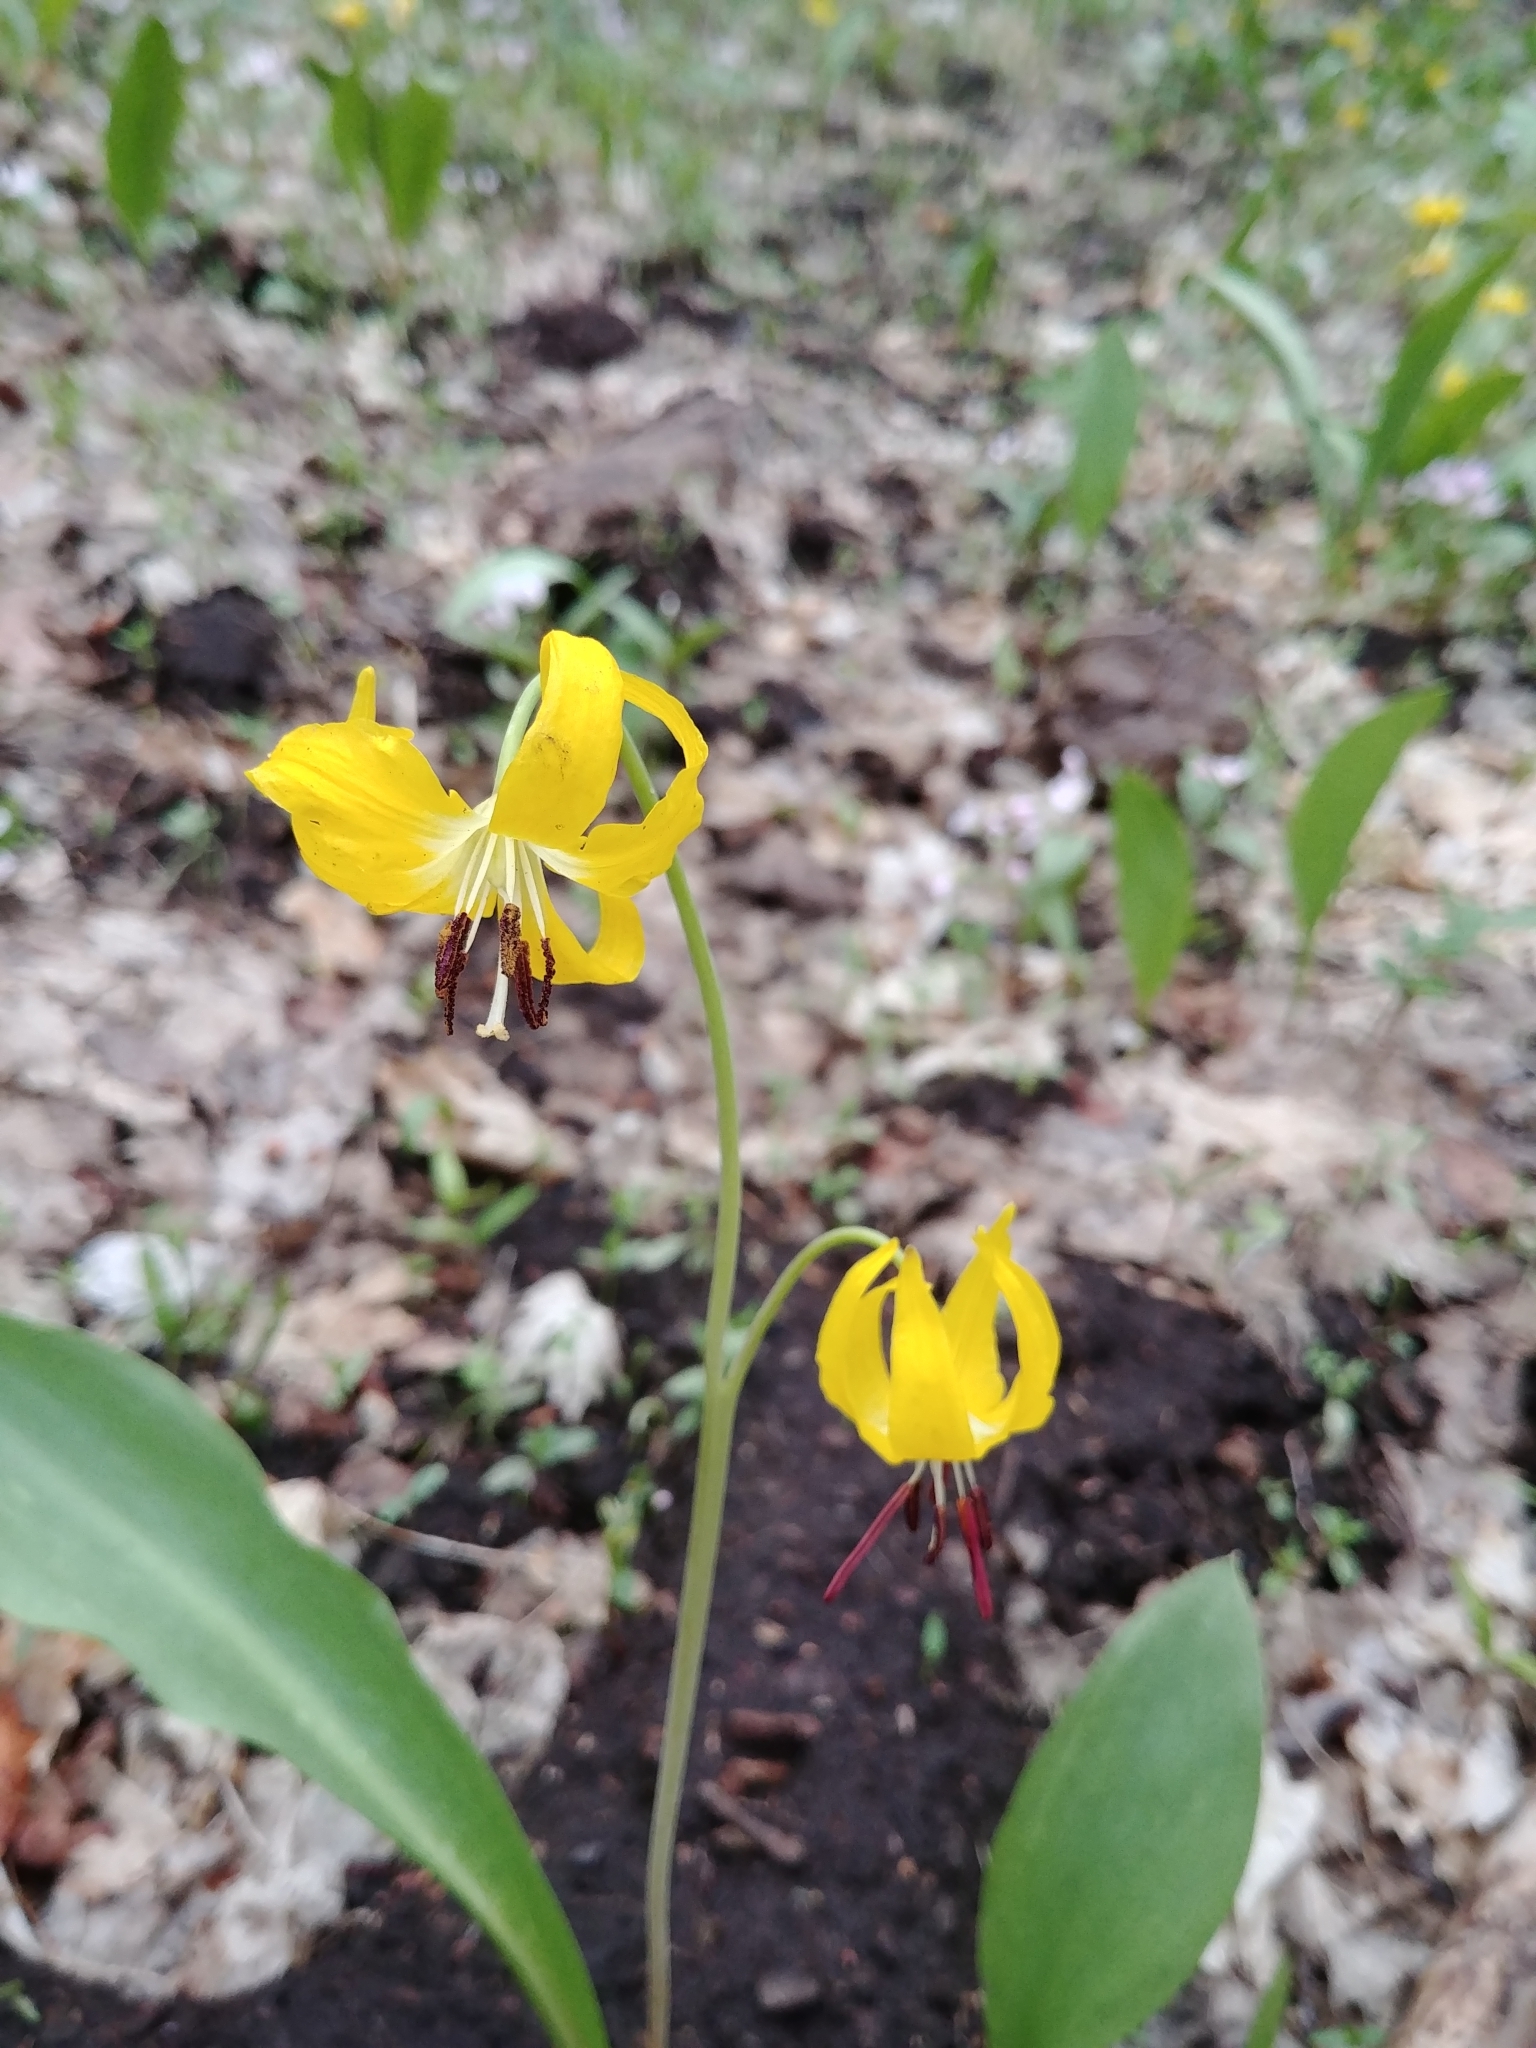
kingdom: Plantae
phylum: Tracheophyta
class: Liliopsida
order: Liliales
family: Liliaceae
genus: Erythronium
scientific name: Erythronium grandiflorum
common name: Avalanche-lily
